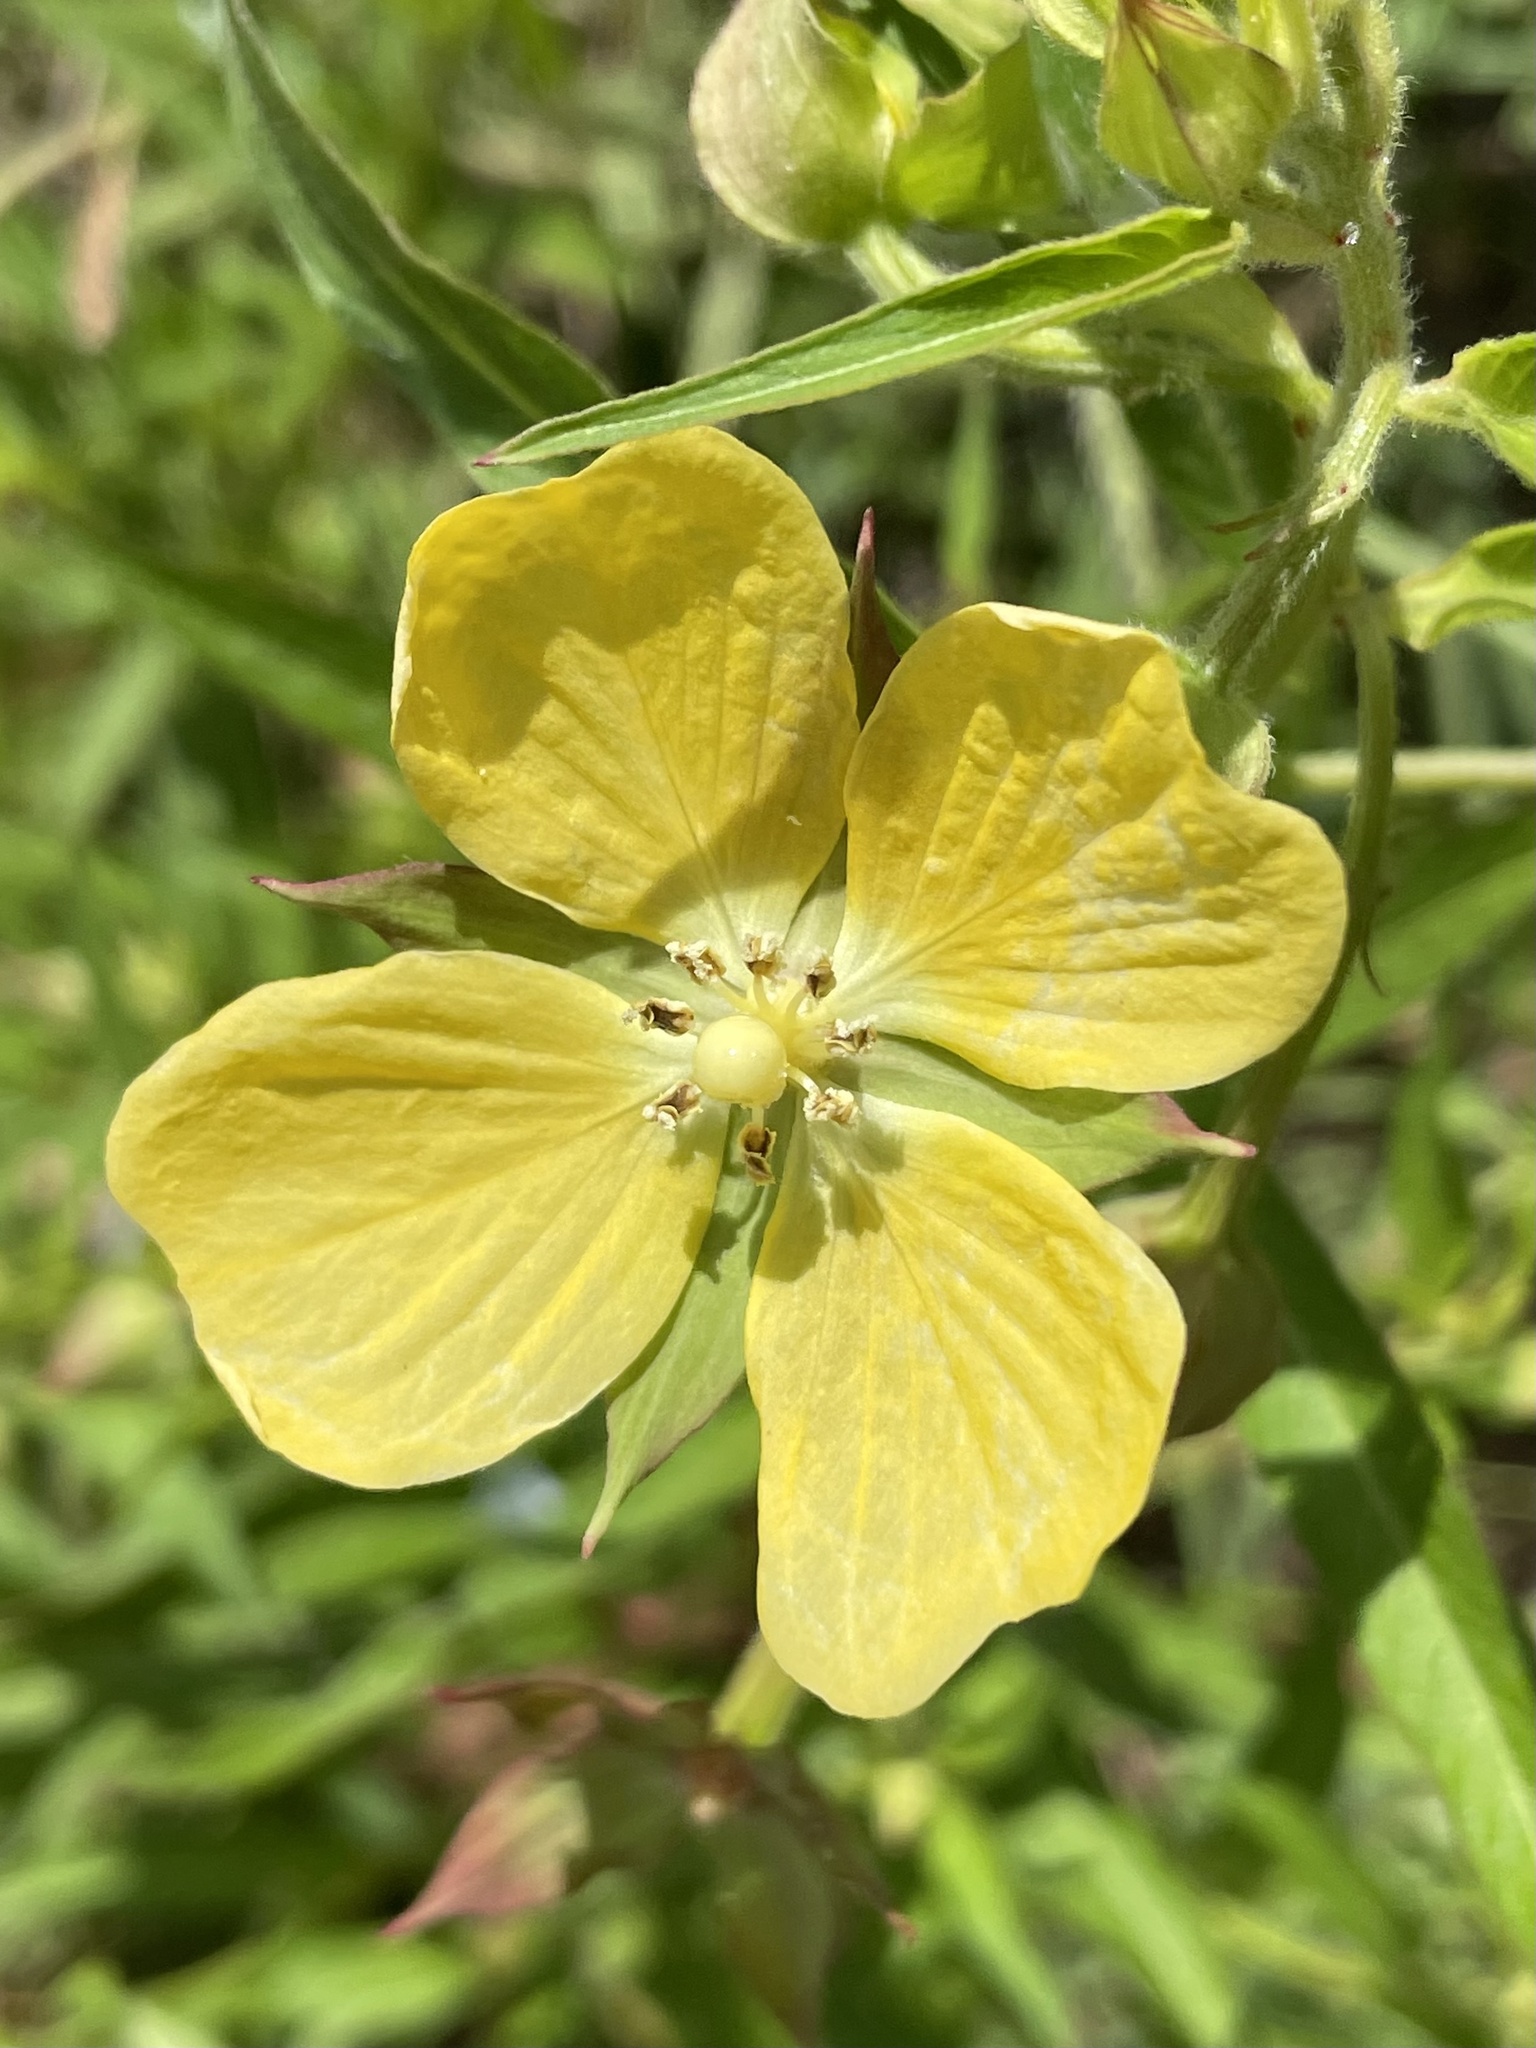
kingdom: Plantae
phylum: Tracheophyta
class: Magnoliopsida
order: Myrtales
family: Onagraceae
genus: Ludwigia
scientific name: Ludwigia octovalvis
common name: Water-primrose
